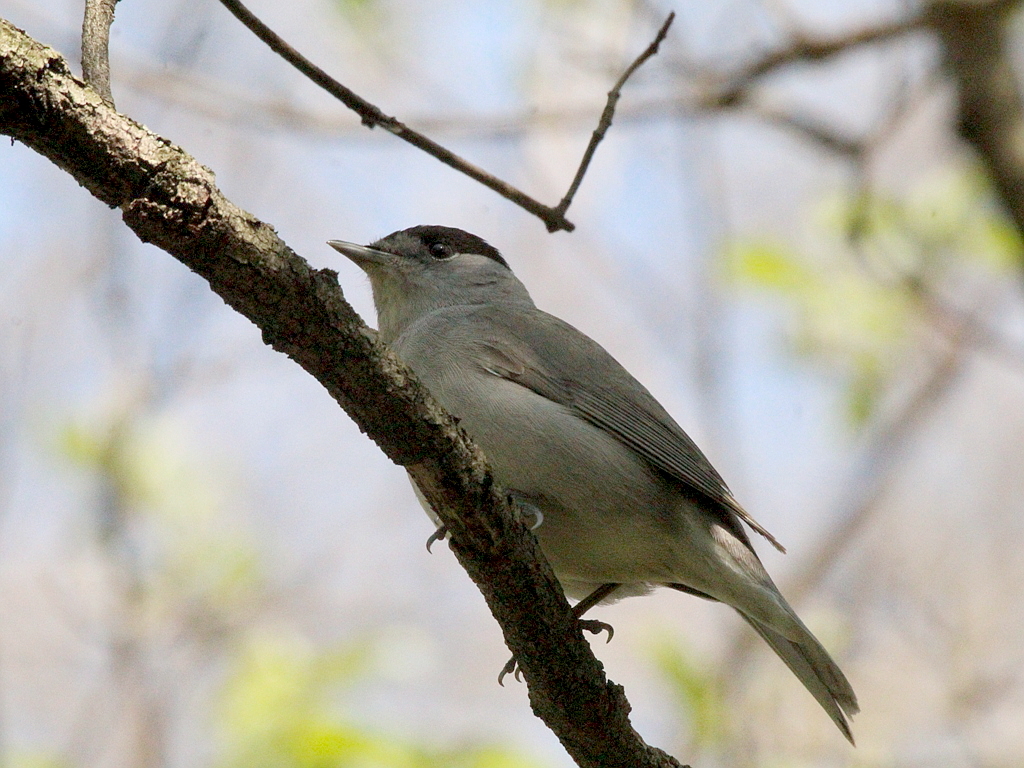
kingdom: Animalia
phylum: Chordata
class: Aves
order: Passeriformes
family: Sylviidae
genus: Sylvia
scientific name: Sylvia atricapilla
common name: Eurasian blackcap
